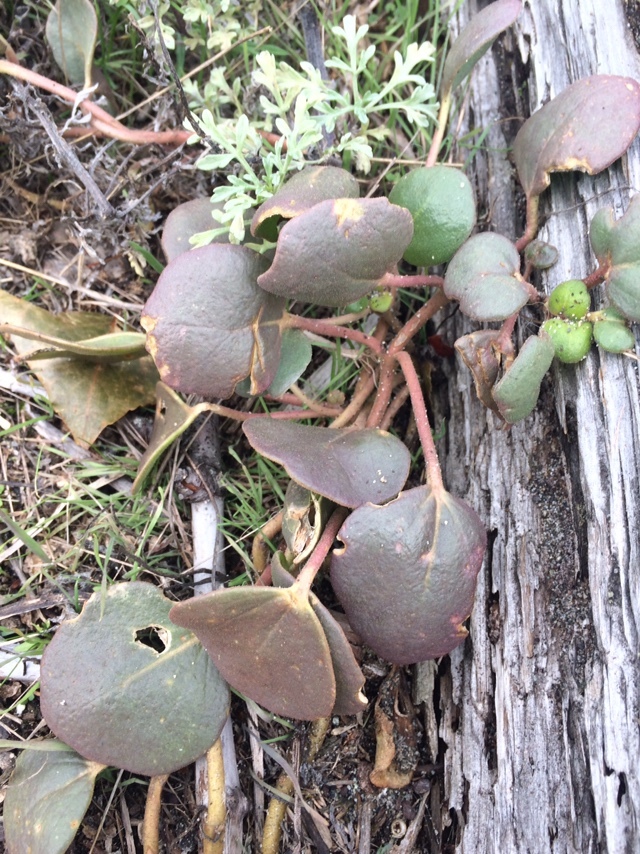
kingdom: Plantae
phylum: Tracheophyta
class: Magnoliopsida
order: Caryophyllales
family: Nyctaginaceae
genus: Abronia
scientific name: Abronia latifolia
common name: Yellow sand-verbena
